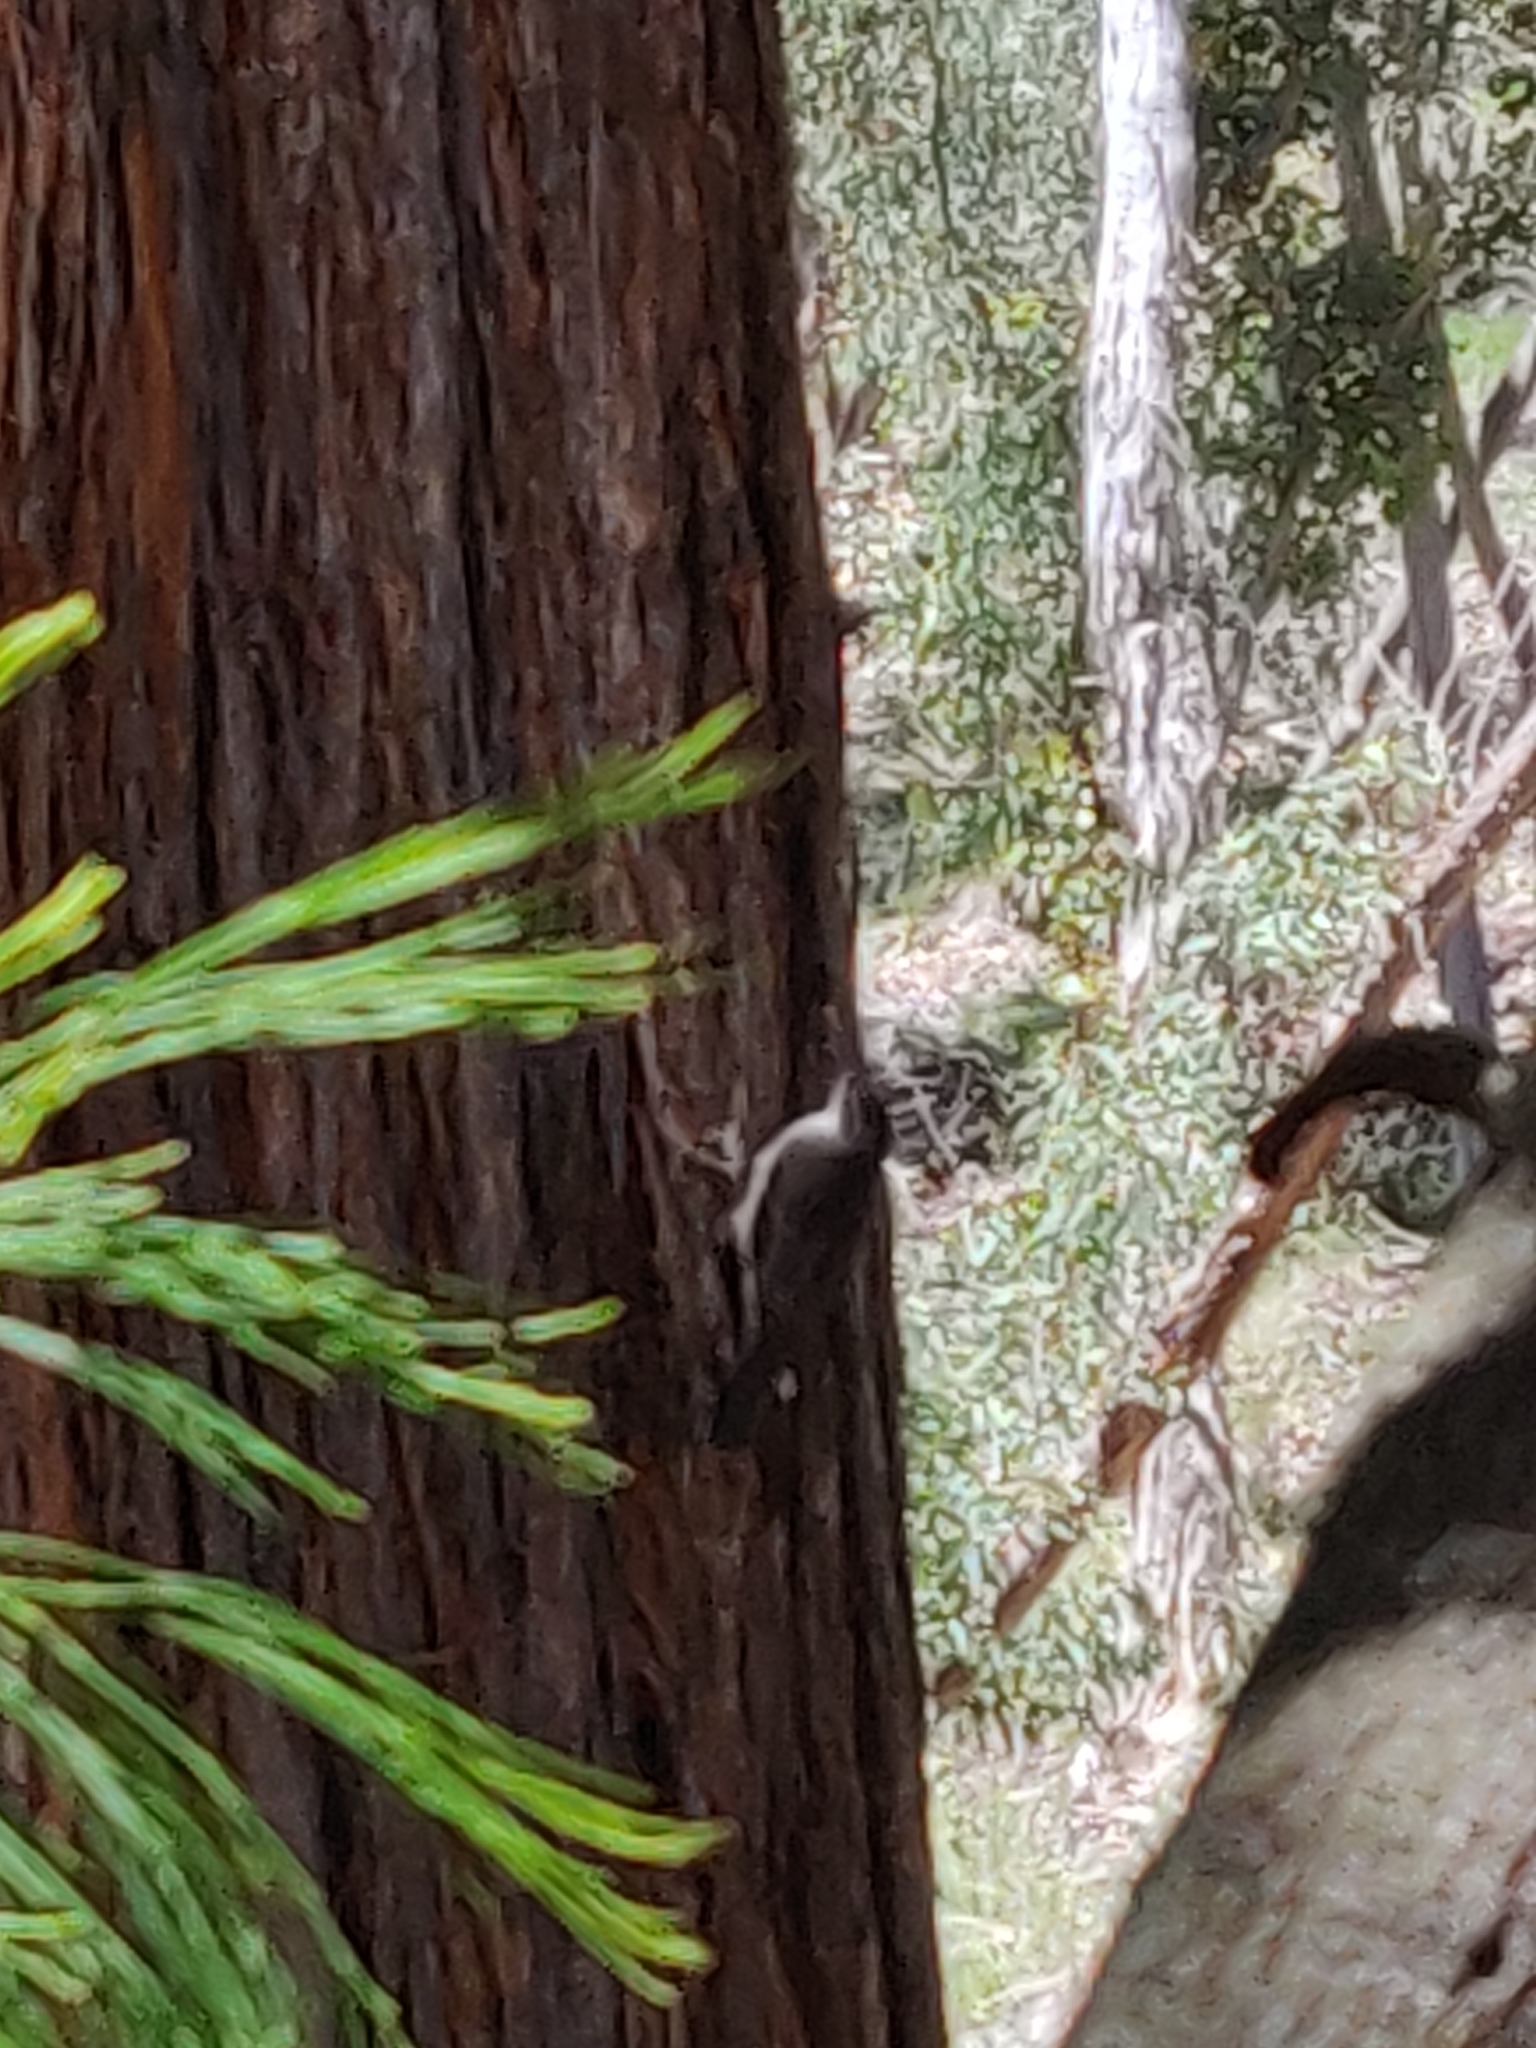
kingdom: Animalia
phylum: Chordata
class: Aves
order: Passeriformes
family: Climacteridae
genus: Cormobates
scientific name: Cormobates leucophaea
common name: White-throated treecreeper
